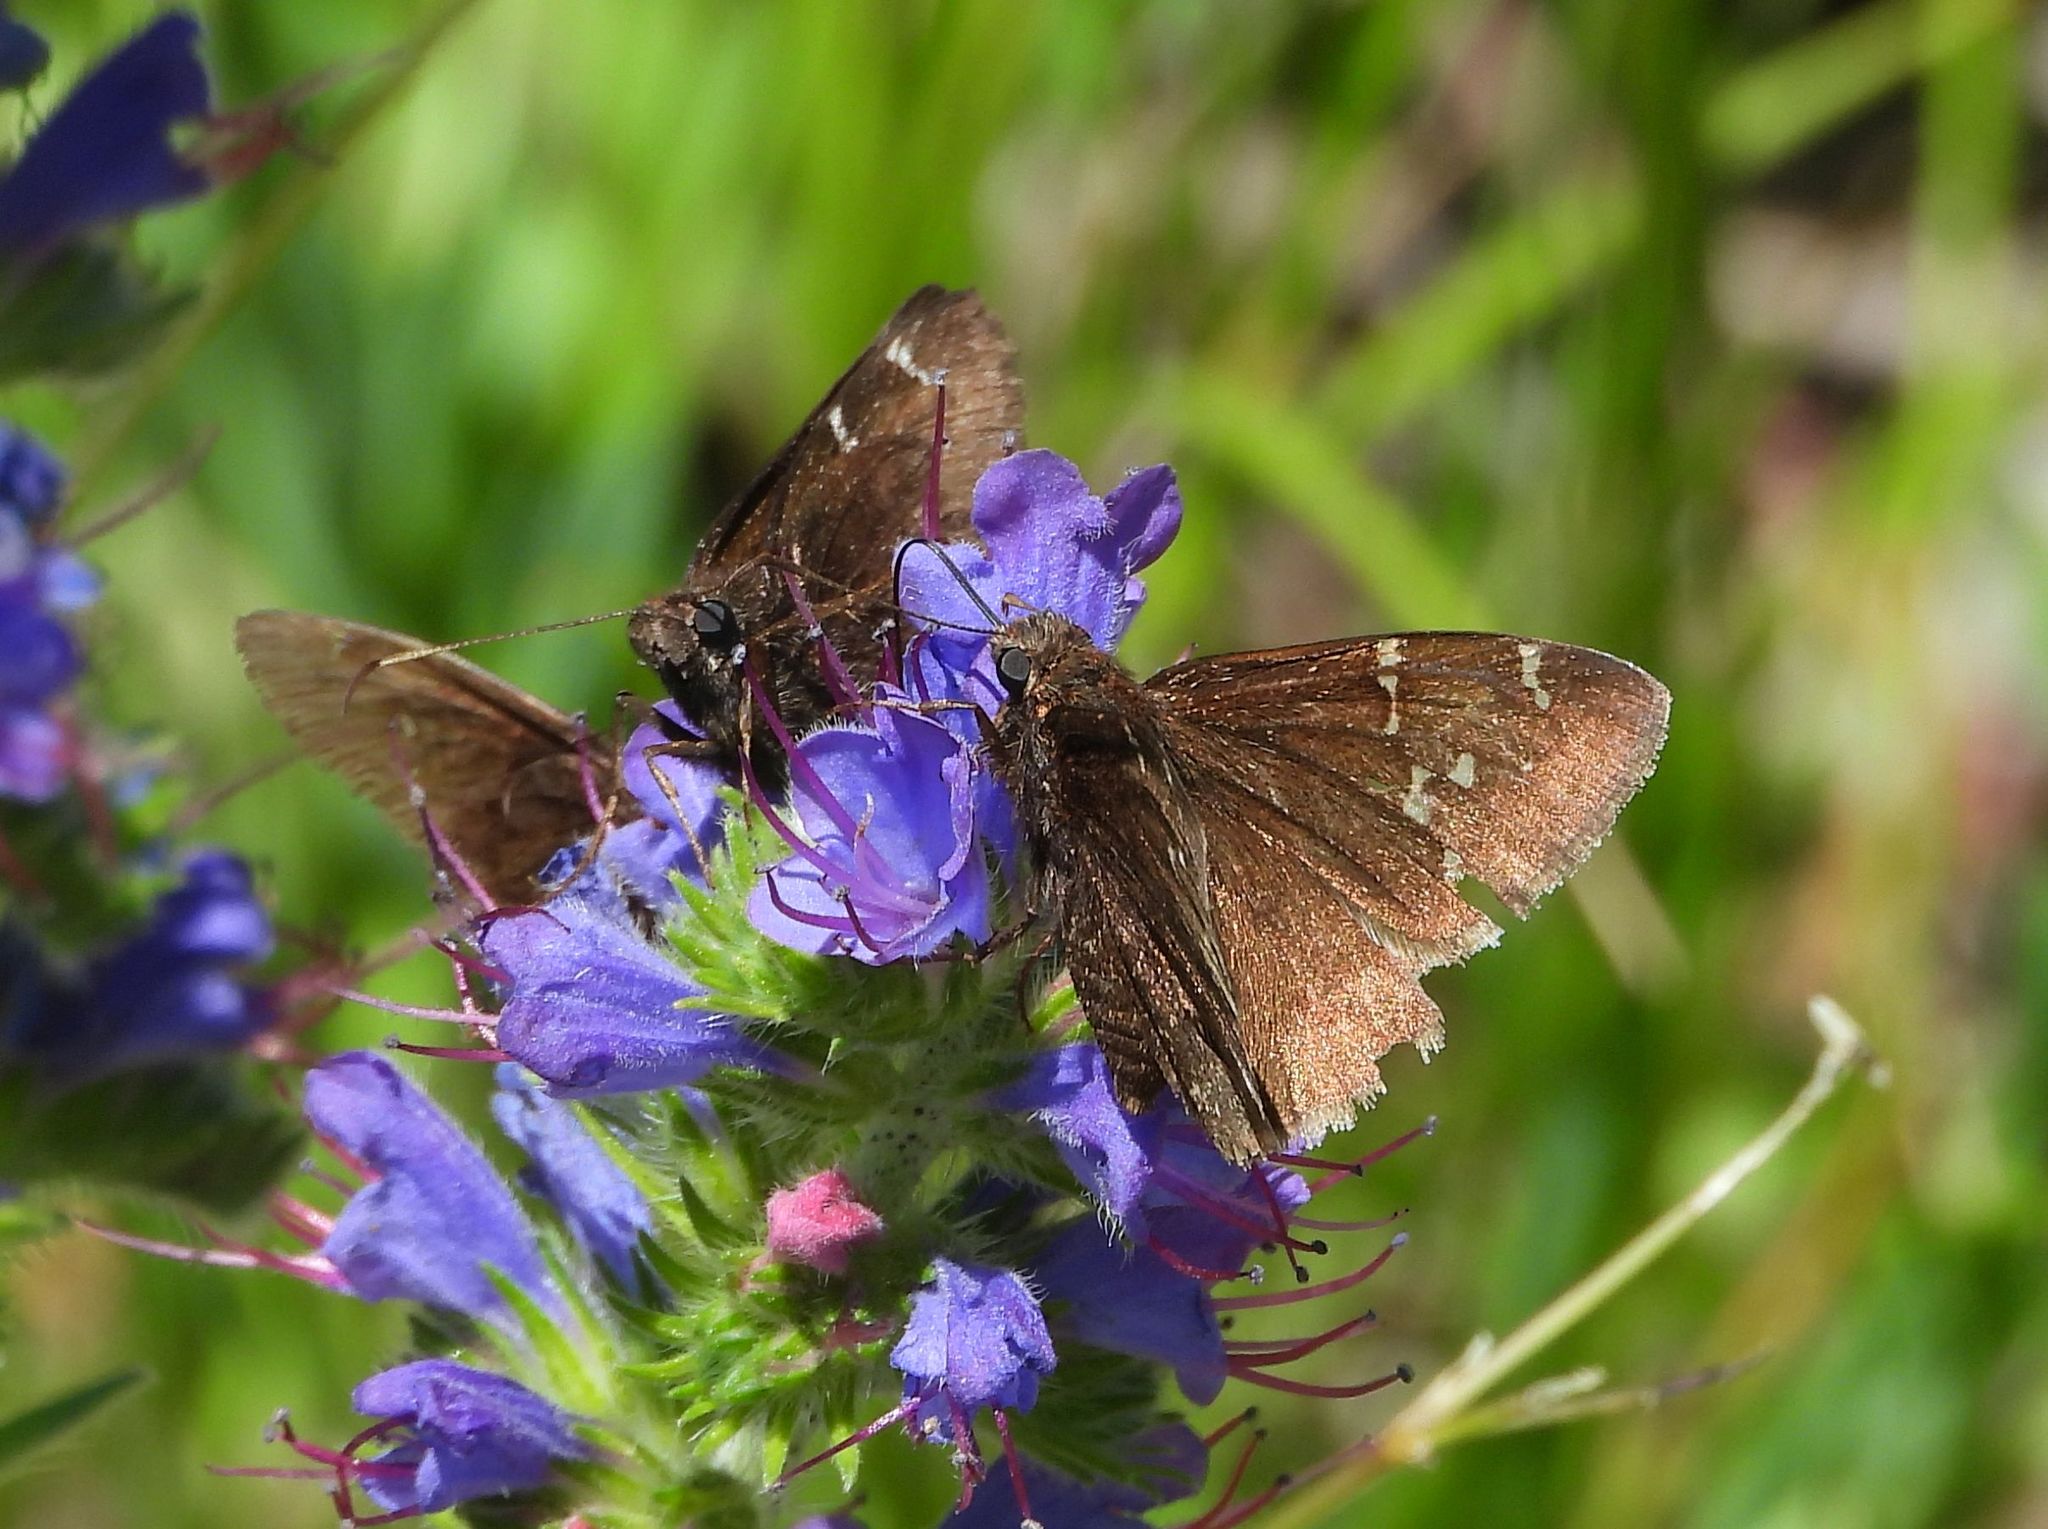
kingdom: Animalia
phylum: Arthropoda
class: Insecta
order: Lepidoptera
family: Hesperiidae
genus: Thorybes
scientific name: Thorybes pylades
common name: Northern cloudywing
